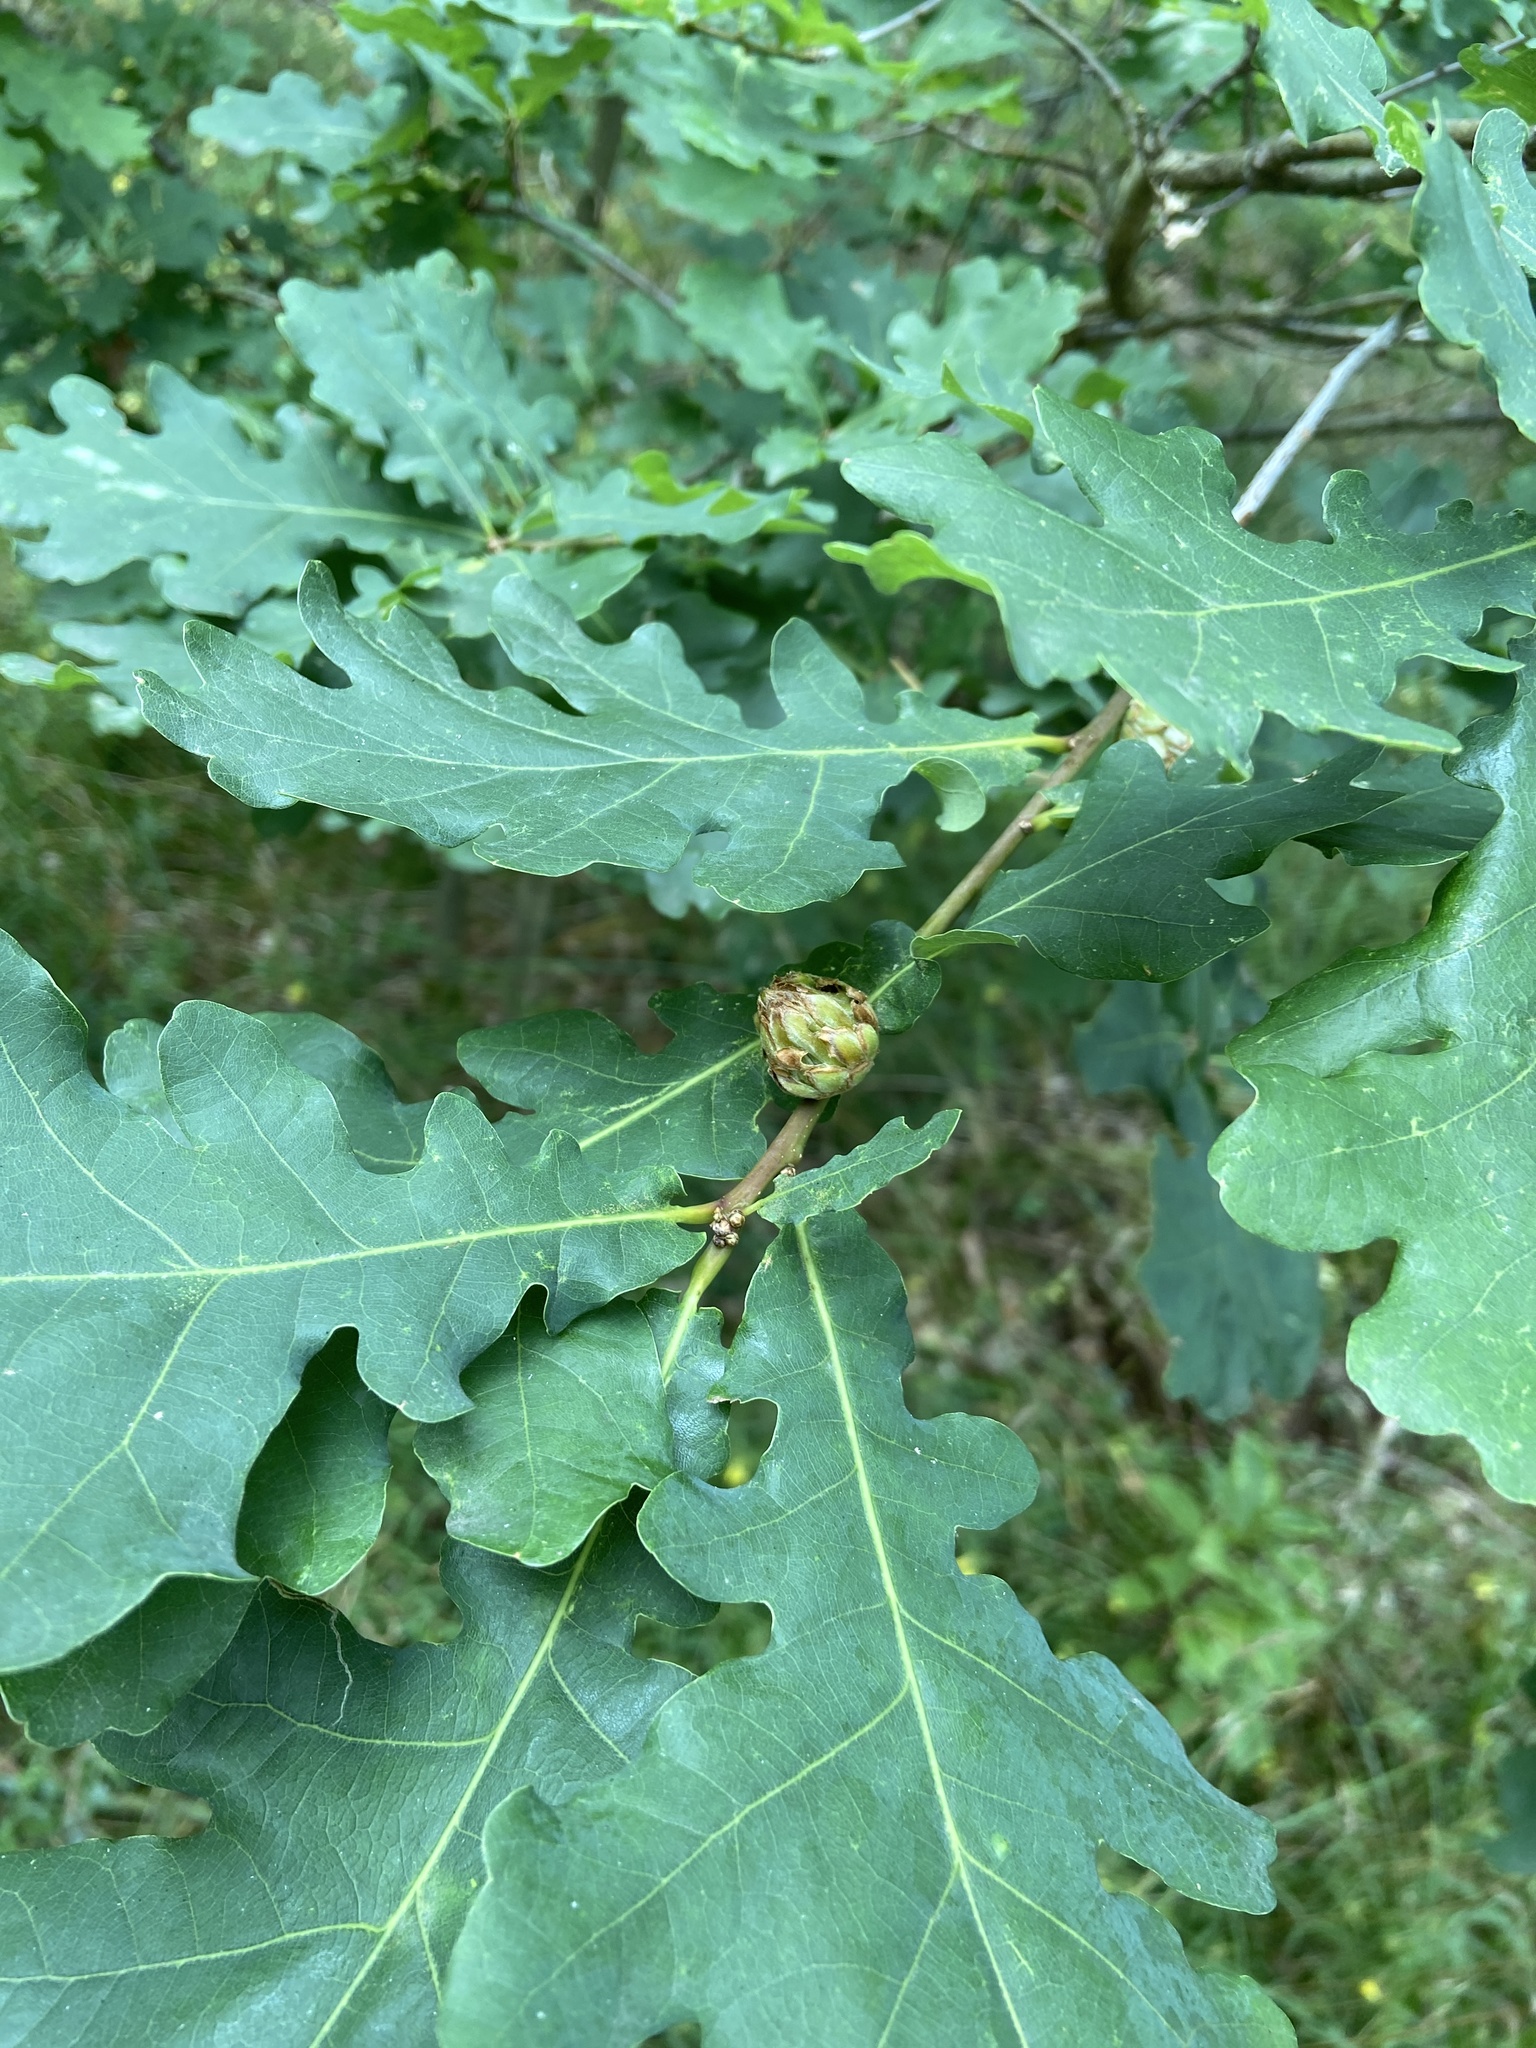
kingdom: Plantae
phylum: Tracheophyta
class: Magnoliopsida
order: Fagales
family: Fagaceae
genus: Quercus
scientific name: Quercus robur
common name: Pedunculate oak
